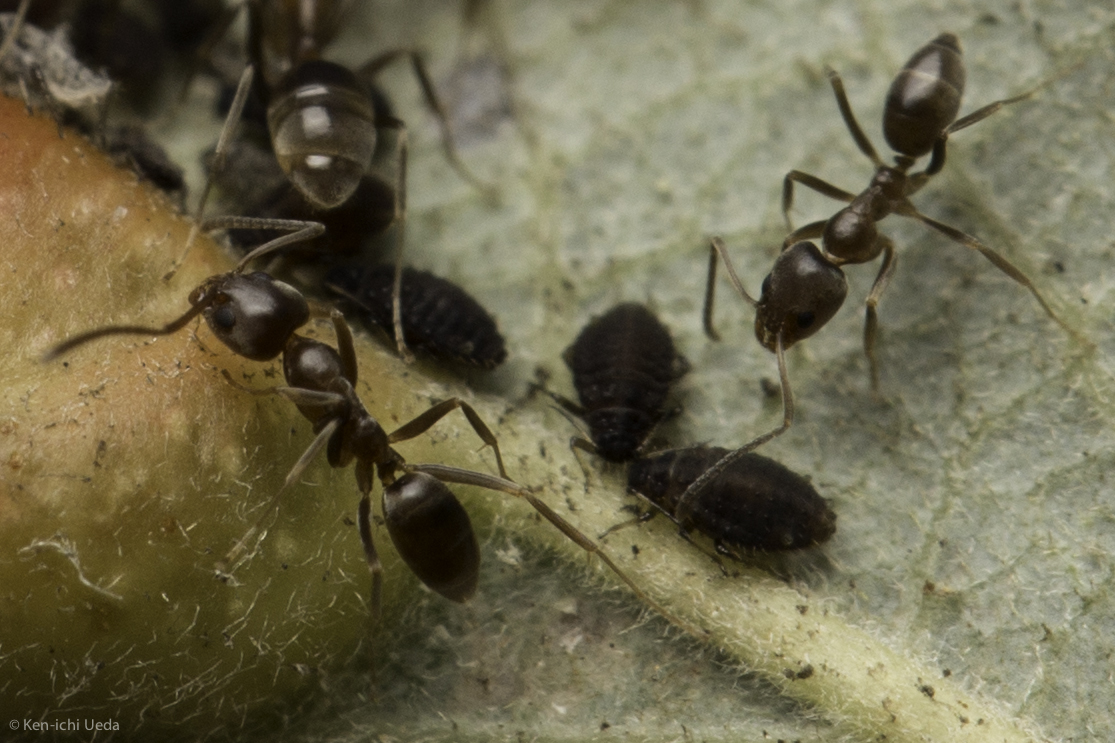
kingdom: Animalia
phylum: Arthropoda
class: Insecta
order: Hymenoptera
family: Formicidae
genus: Linepithema
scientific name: Linepithema humile
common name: Argentine ant
